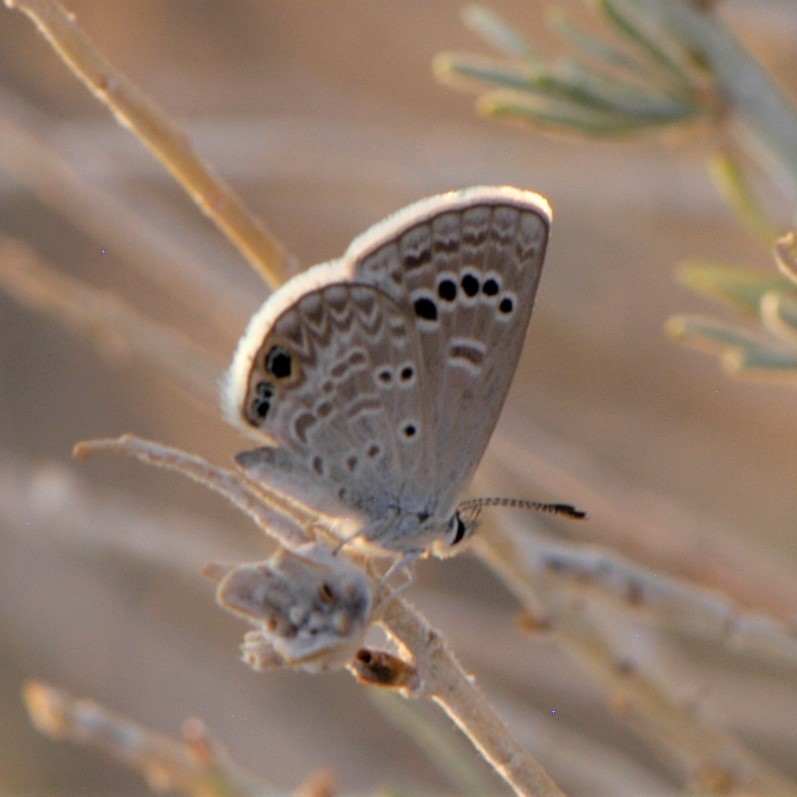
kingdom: Animalia
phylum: Arthropoda
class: Insecta
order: Lepidoptera
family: Lycaenidae
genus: Echinargus
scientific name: Echinargus isola
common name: Reakirt's blue
